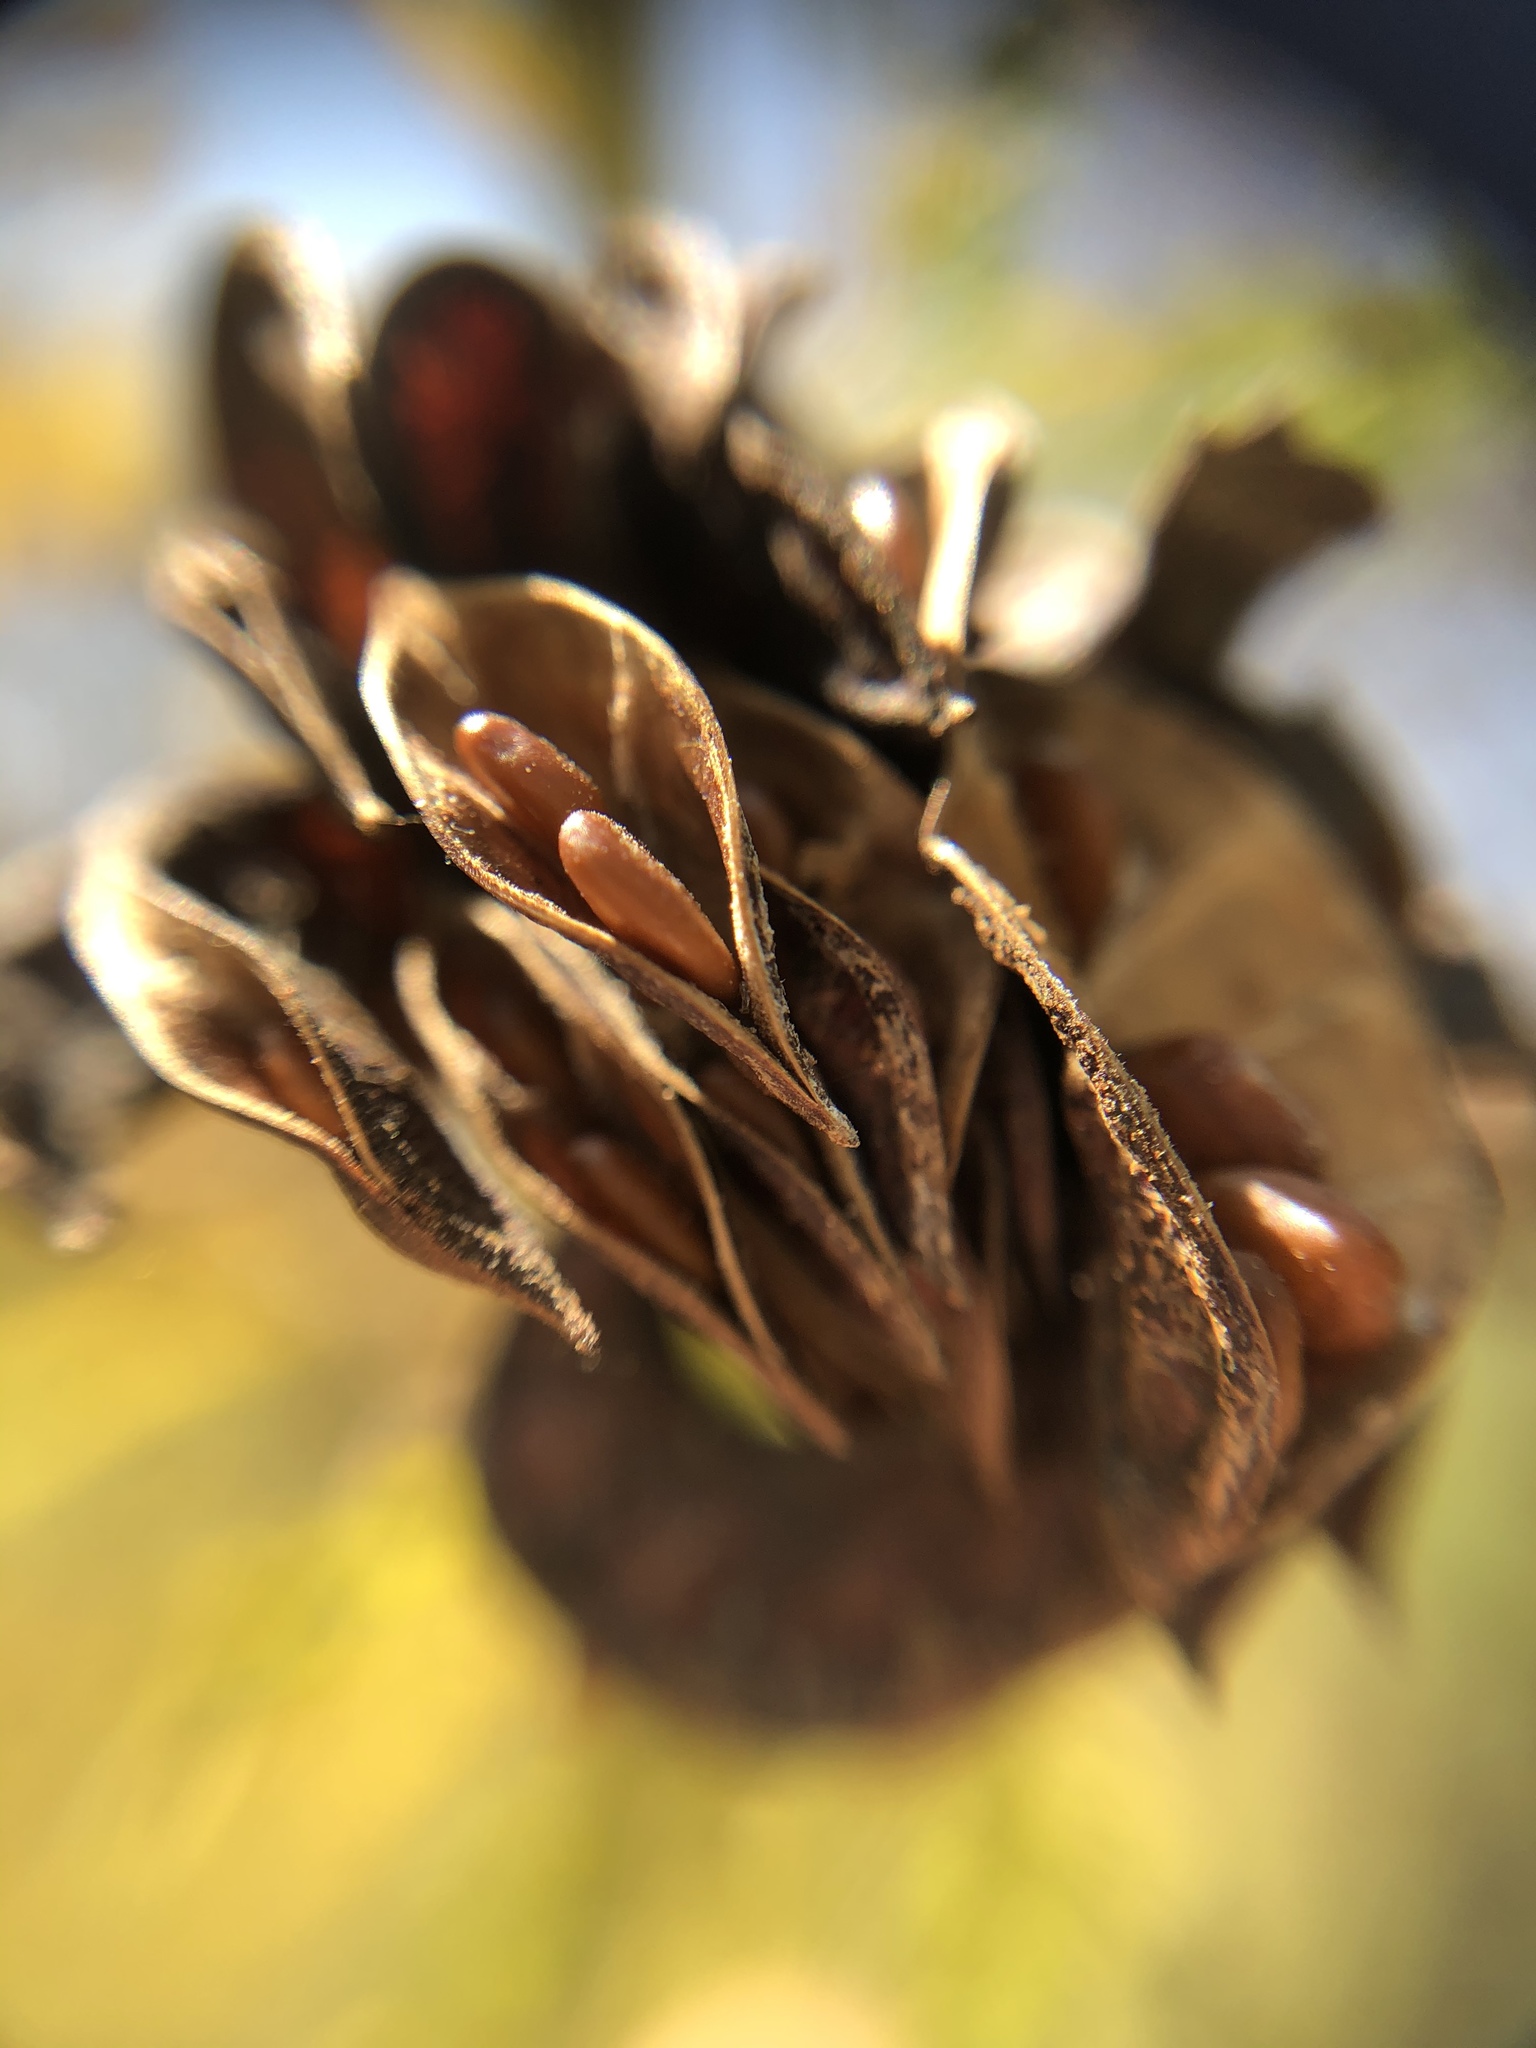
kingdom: Plantae
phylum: Tracheophyta
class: Magnoliopsida
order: Fabales
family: Fabaceae
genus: Desmanthus
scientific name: Desmanthus illinoensis
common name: Illinois bundle-flower
